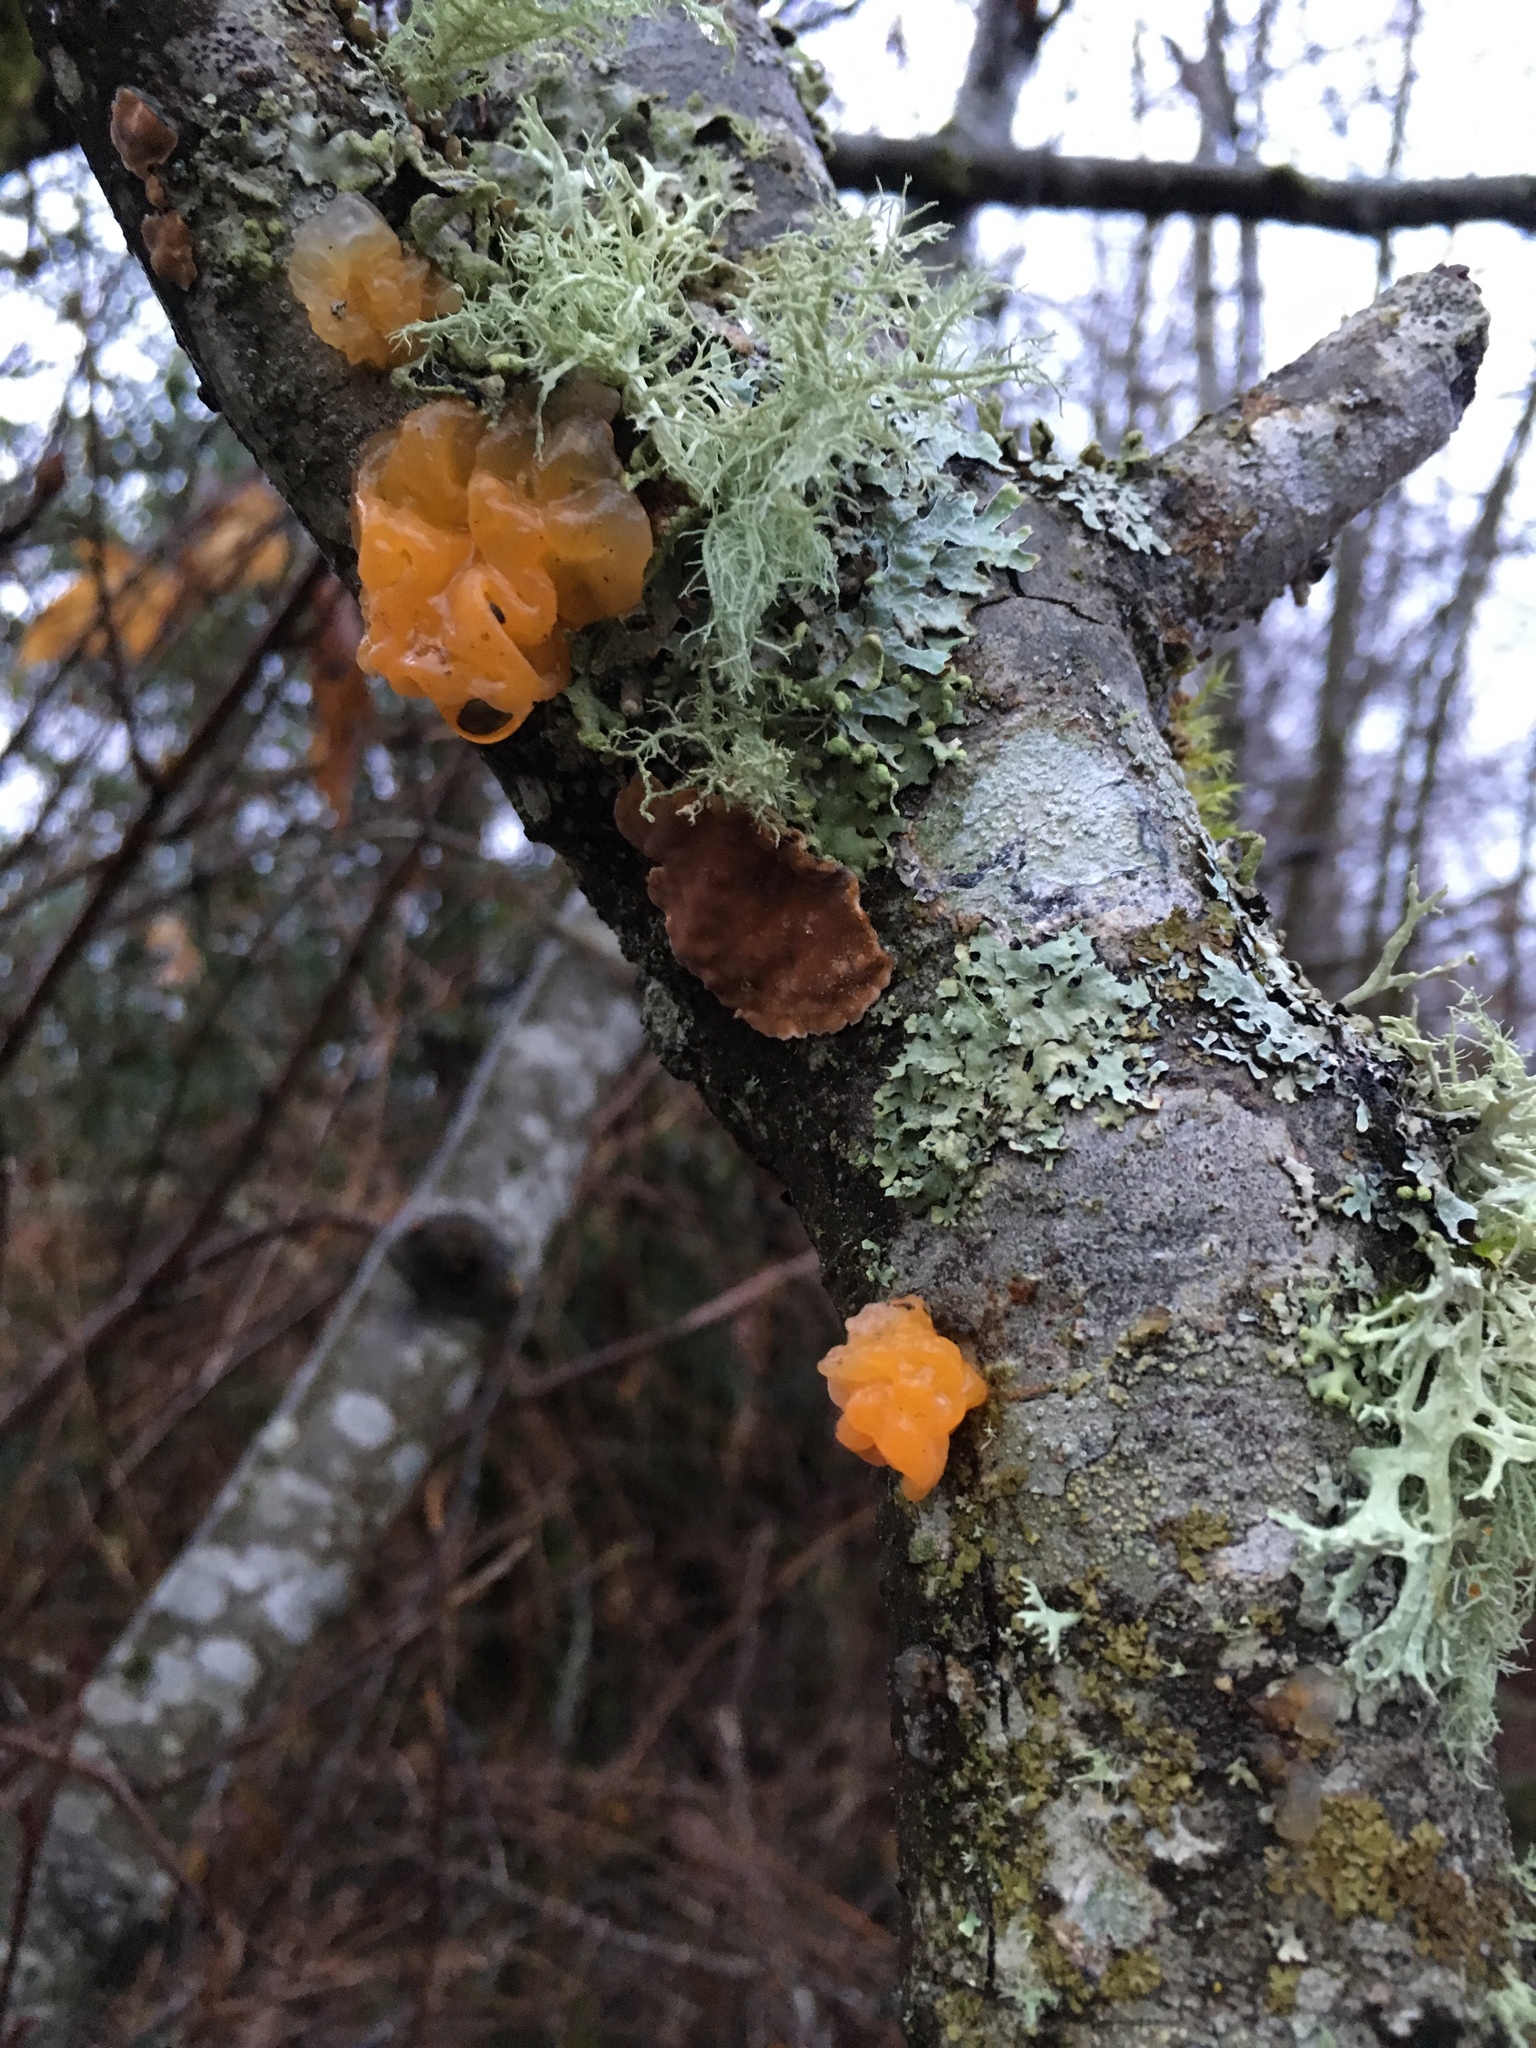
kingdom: Fungi
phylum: Basidiomycota
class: Tremellomycetes
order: Tremellales
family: Naemateliaceae
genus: Naematelia
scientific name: Naematelia aurantia
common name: Golden ear
